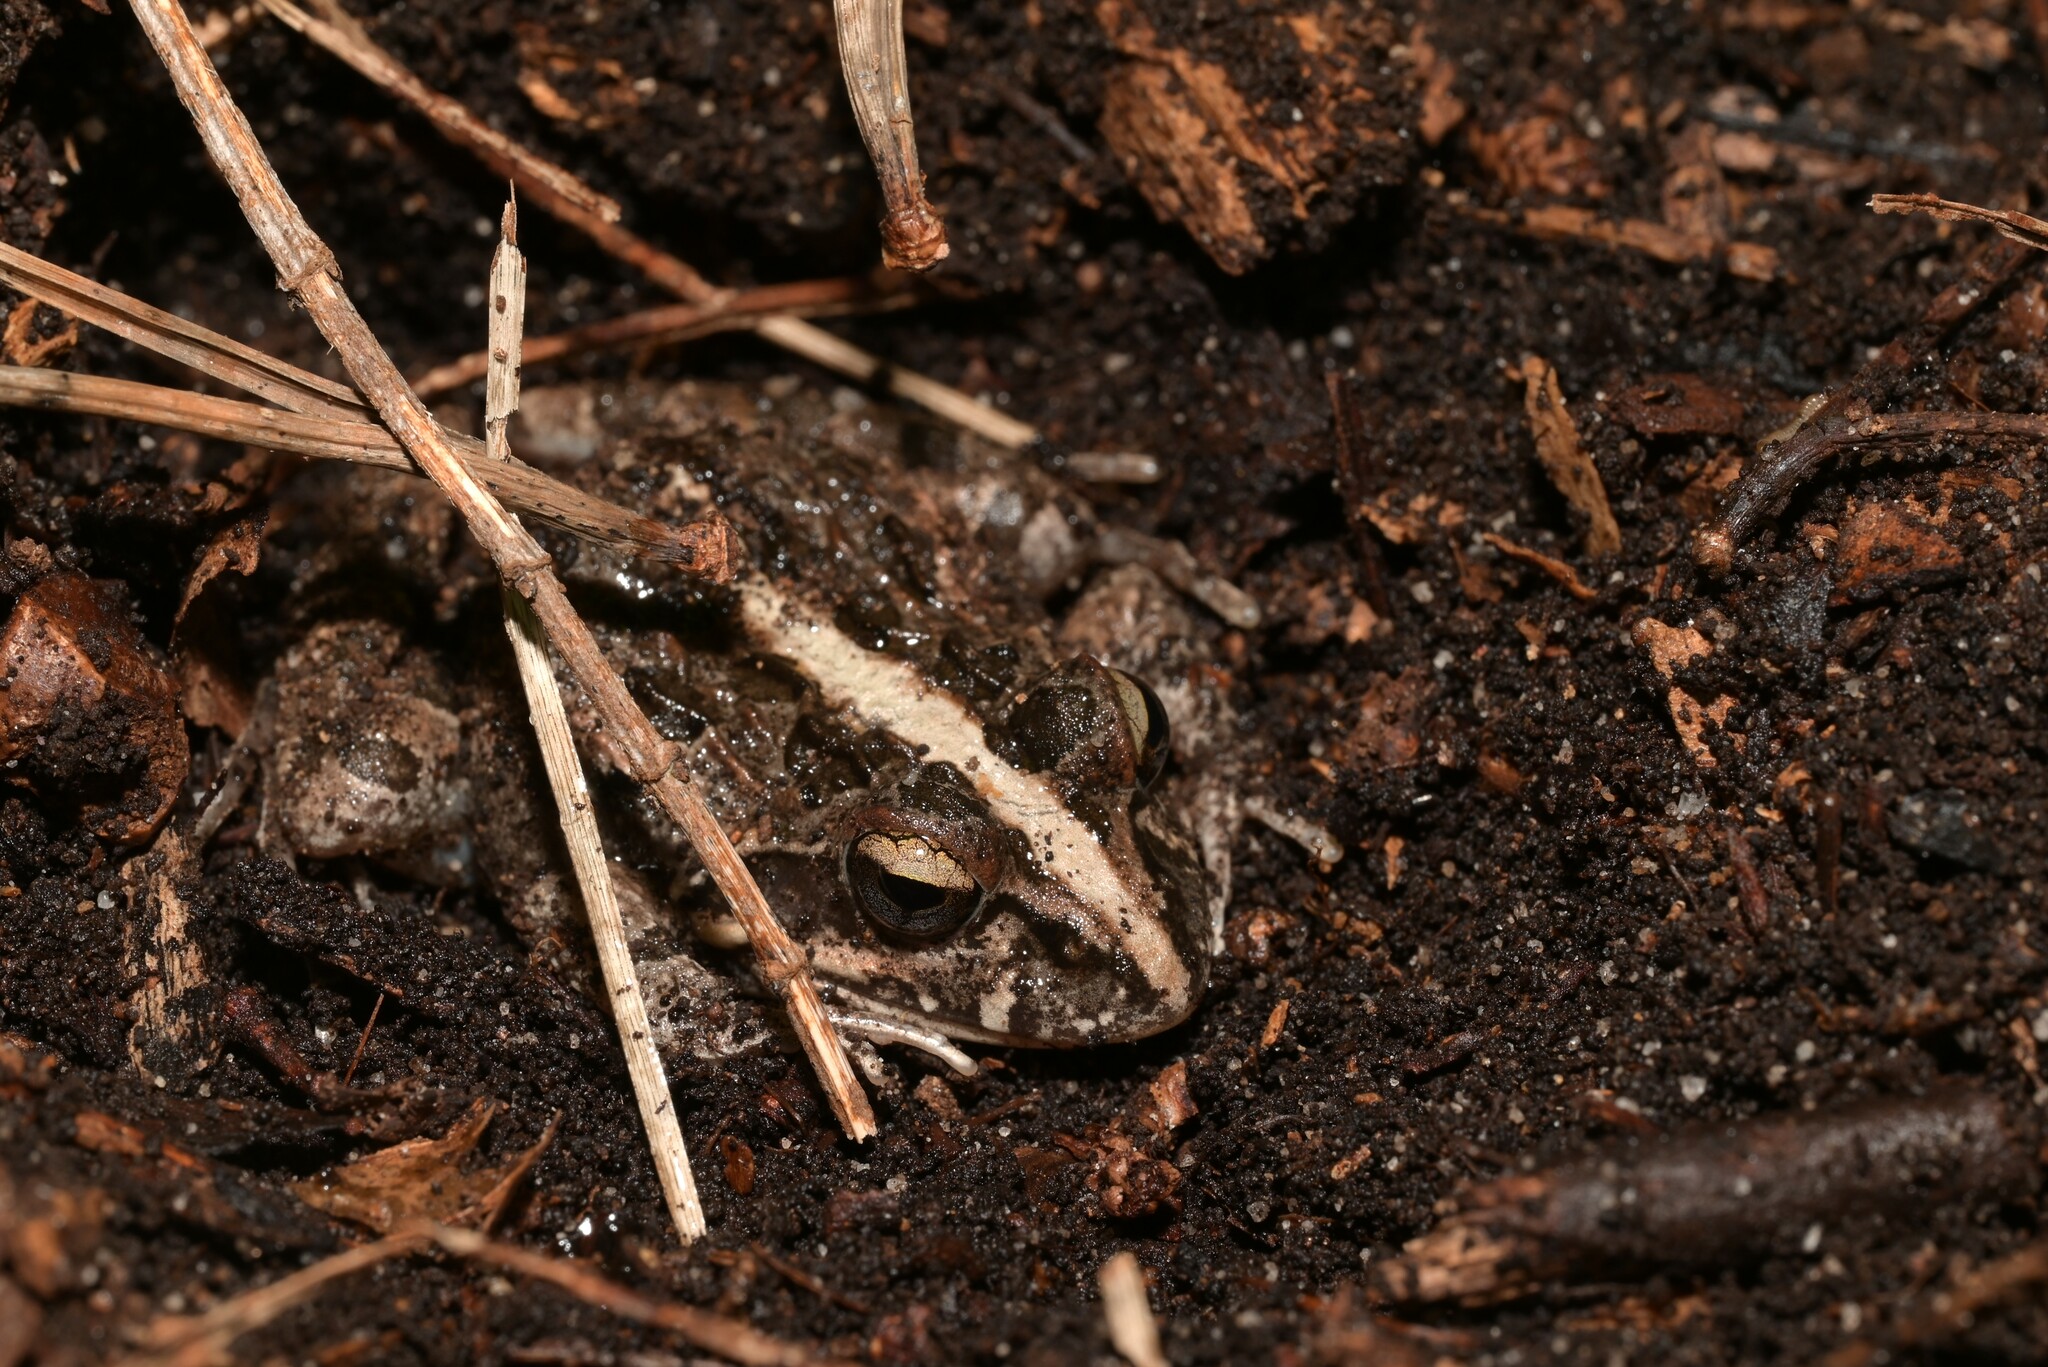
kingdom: Animalia
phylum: Chordata
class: Amphibia
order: Anura
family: Pyxicephalidae
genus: Strongylopus
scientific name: Strongylopus grayii
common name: Gray's stream frog
